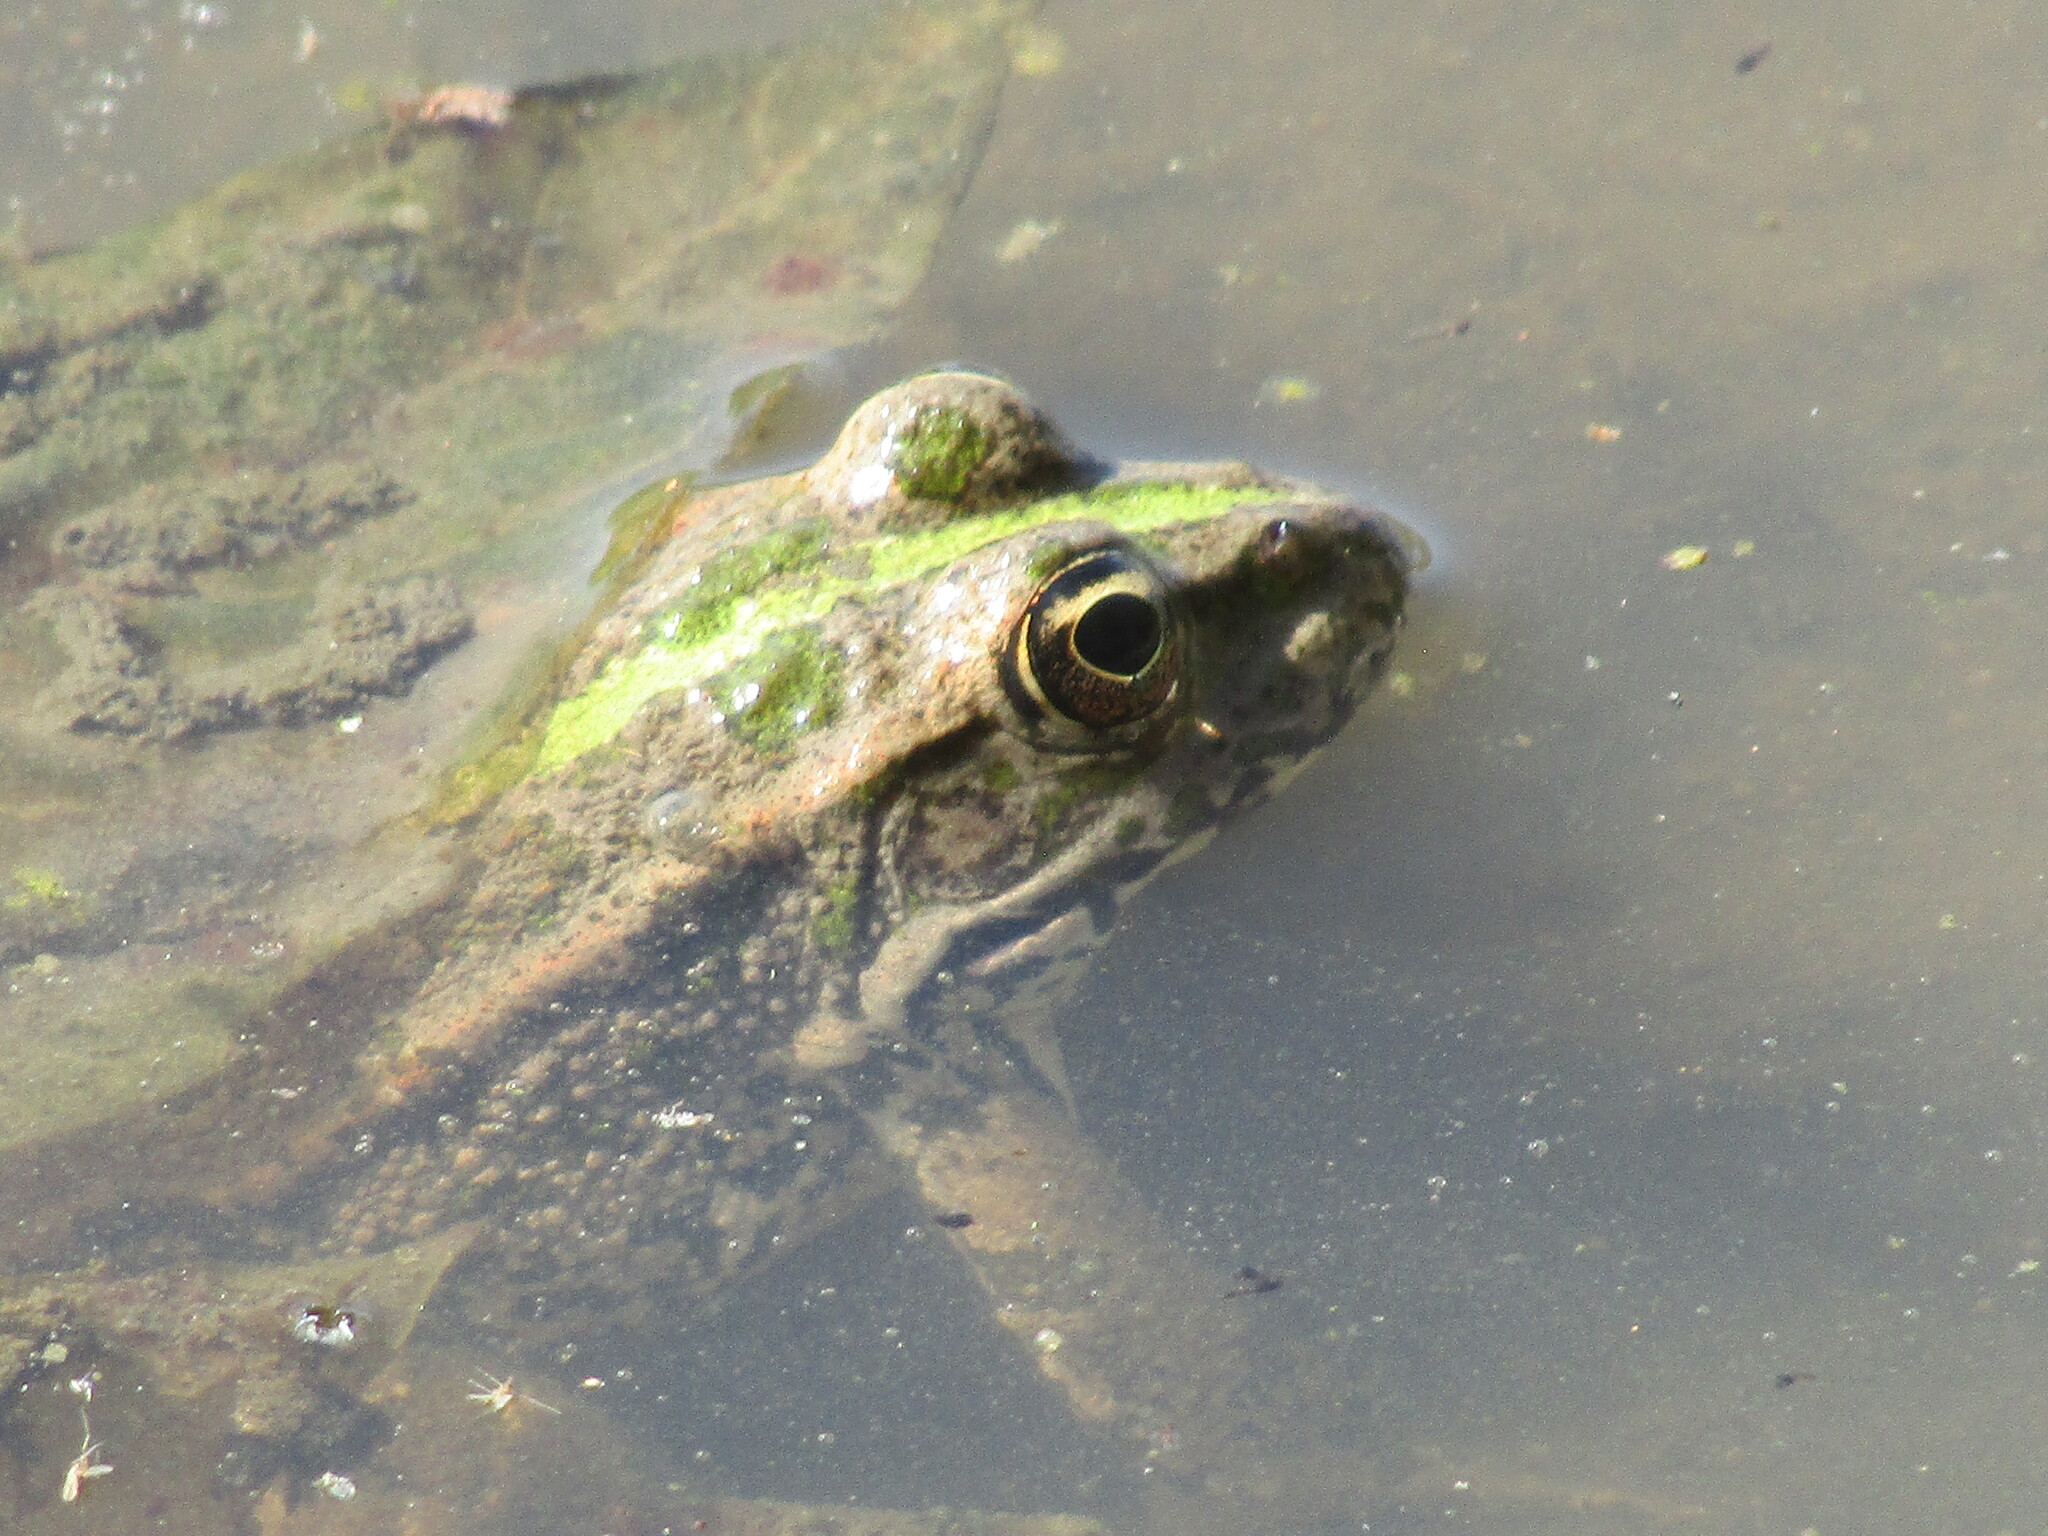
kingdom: Animalia
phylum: Chordata
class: Amphibia
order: Anura
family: Ranidae
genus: Pelophylax
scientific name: Pelophylax ridibundus
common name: Marsh frog
